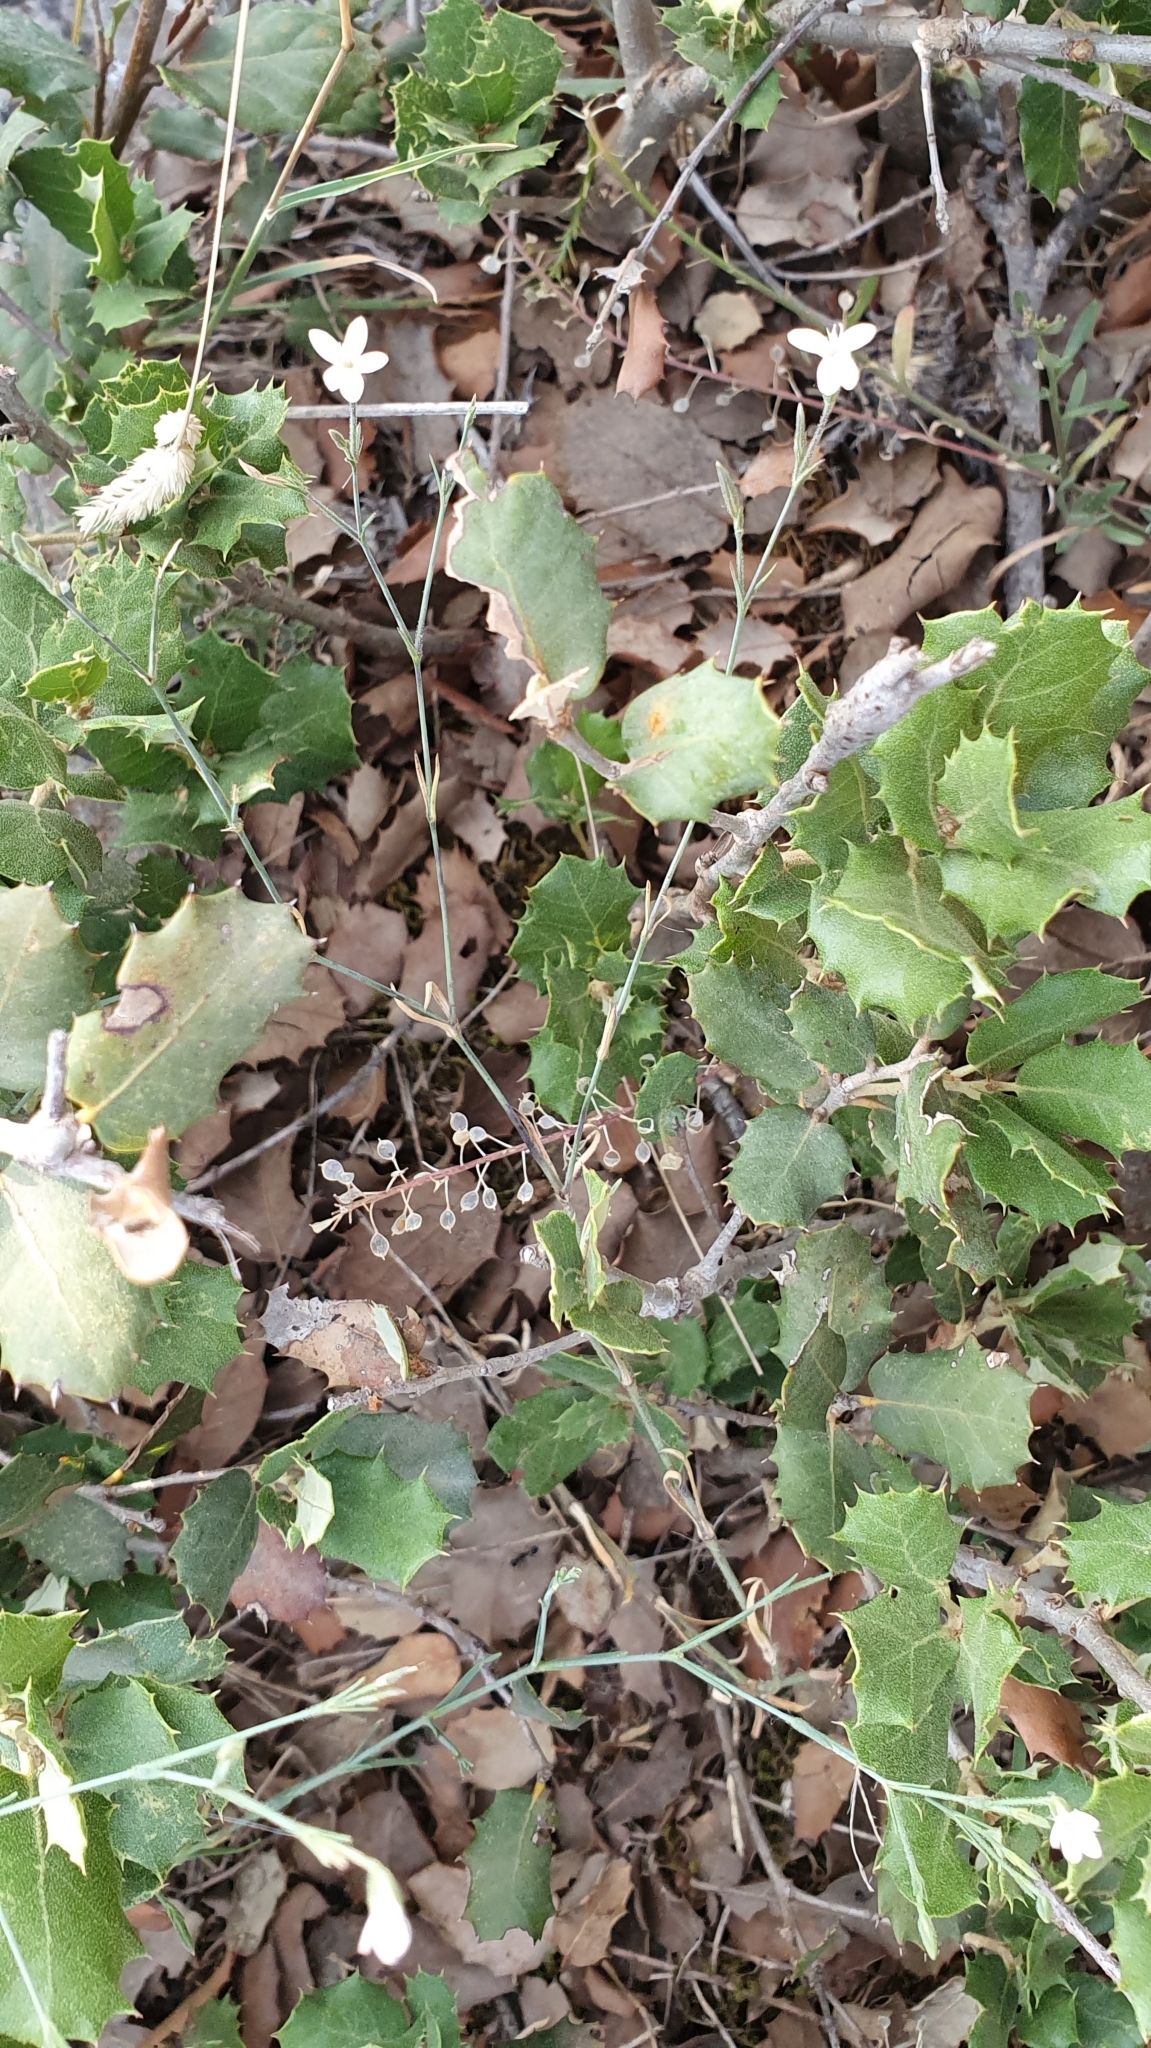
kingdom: Plantae
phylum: Tracheophyta
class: Magnoliopsida
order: Caryophyllales
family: Caryophyllaceae
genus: Dianthus
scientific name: Dianthus illyricus
